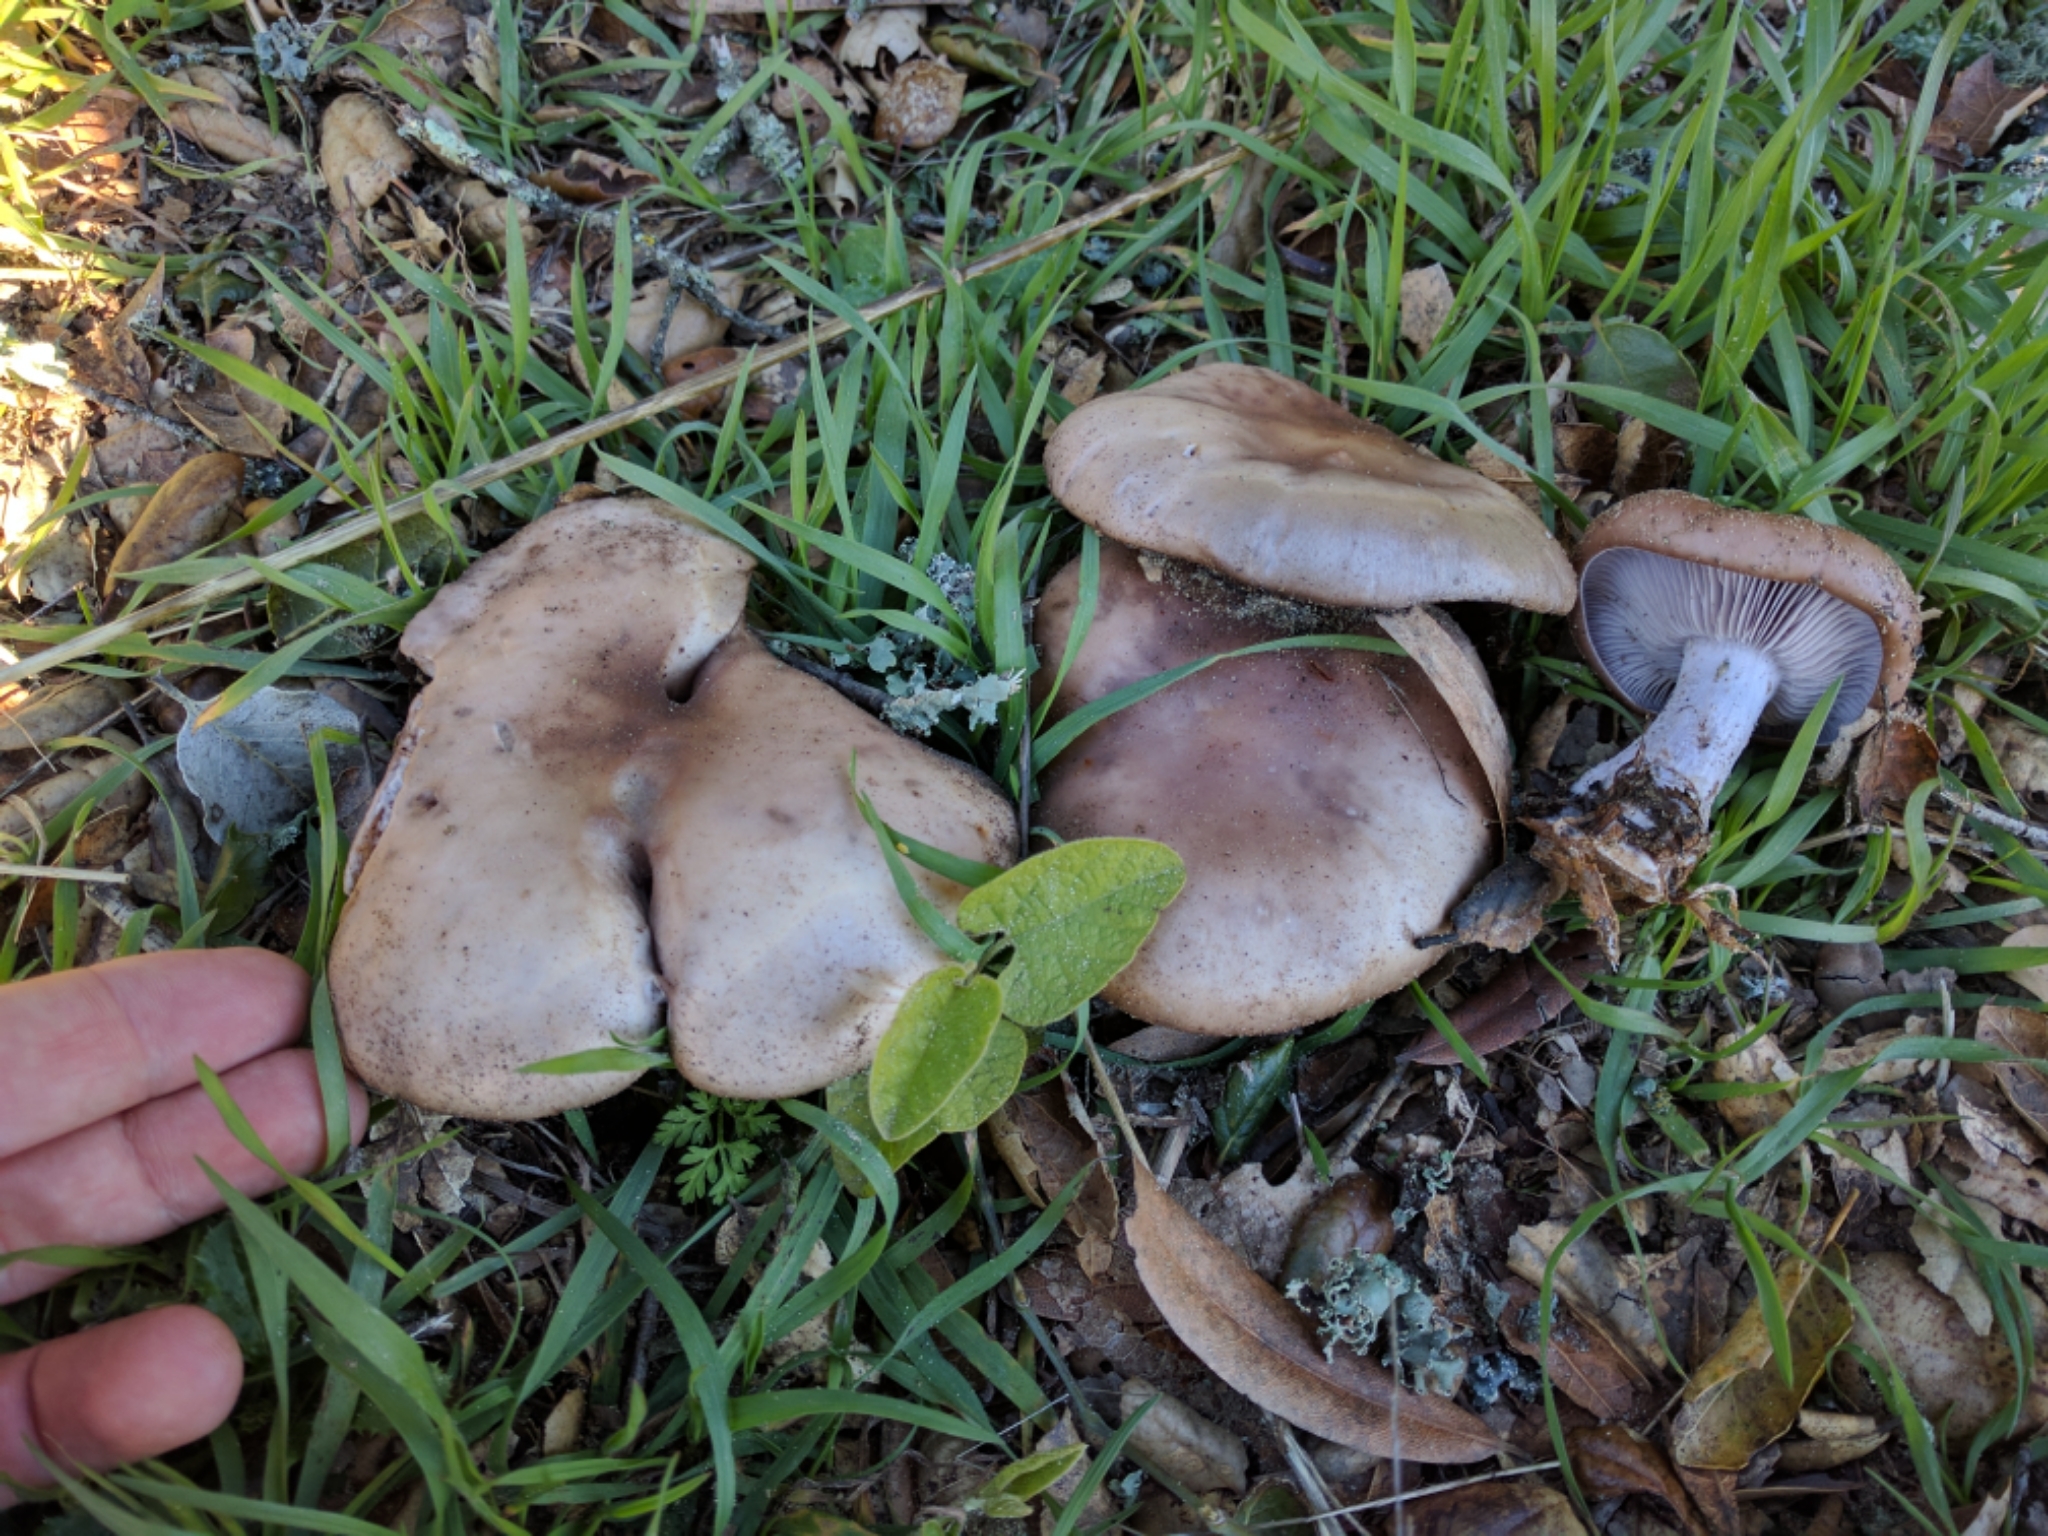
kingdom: Fungi
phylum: Basidiomycota
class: Agaricomycetes
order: Agaricales
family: Tricholomataceae
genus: Collybia
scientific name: Collybia
